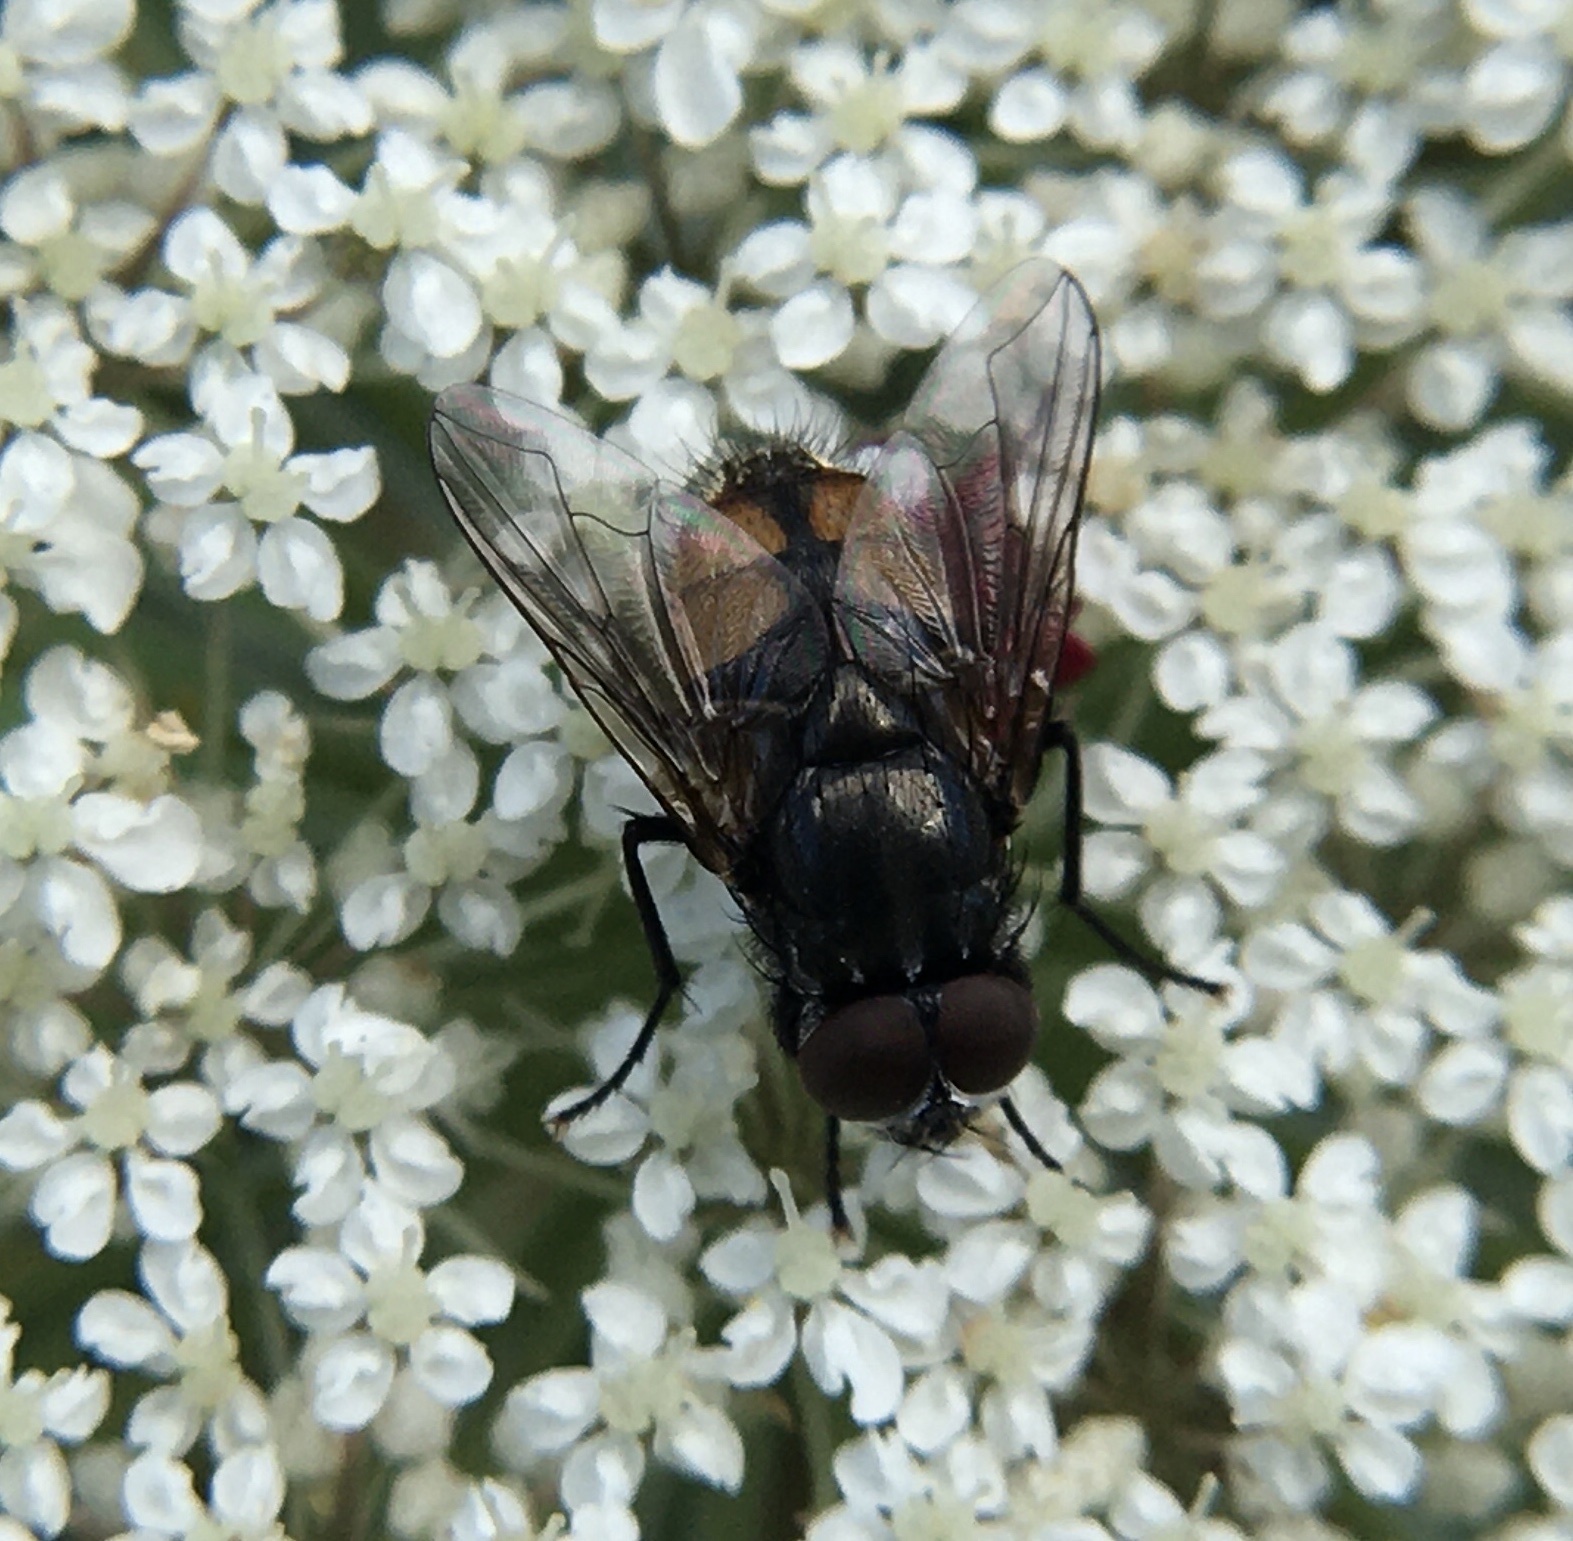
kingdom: Animalia
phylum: Arthropoda
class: Insecta
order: Diptera
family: Muscidae
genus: Musca
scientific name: Musca autumnalis
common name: Face fly
